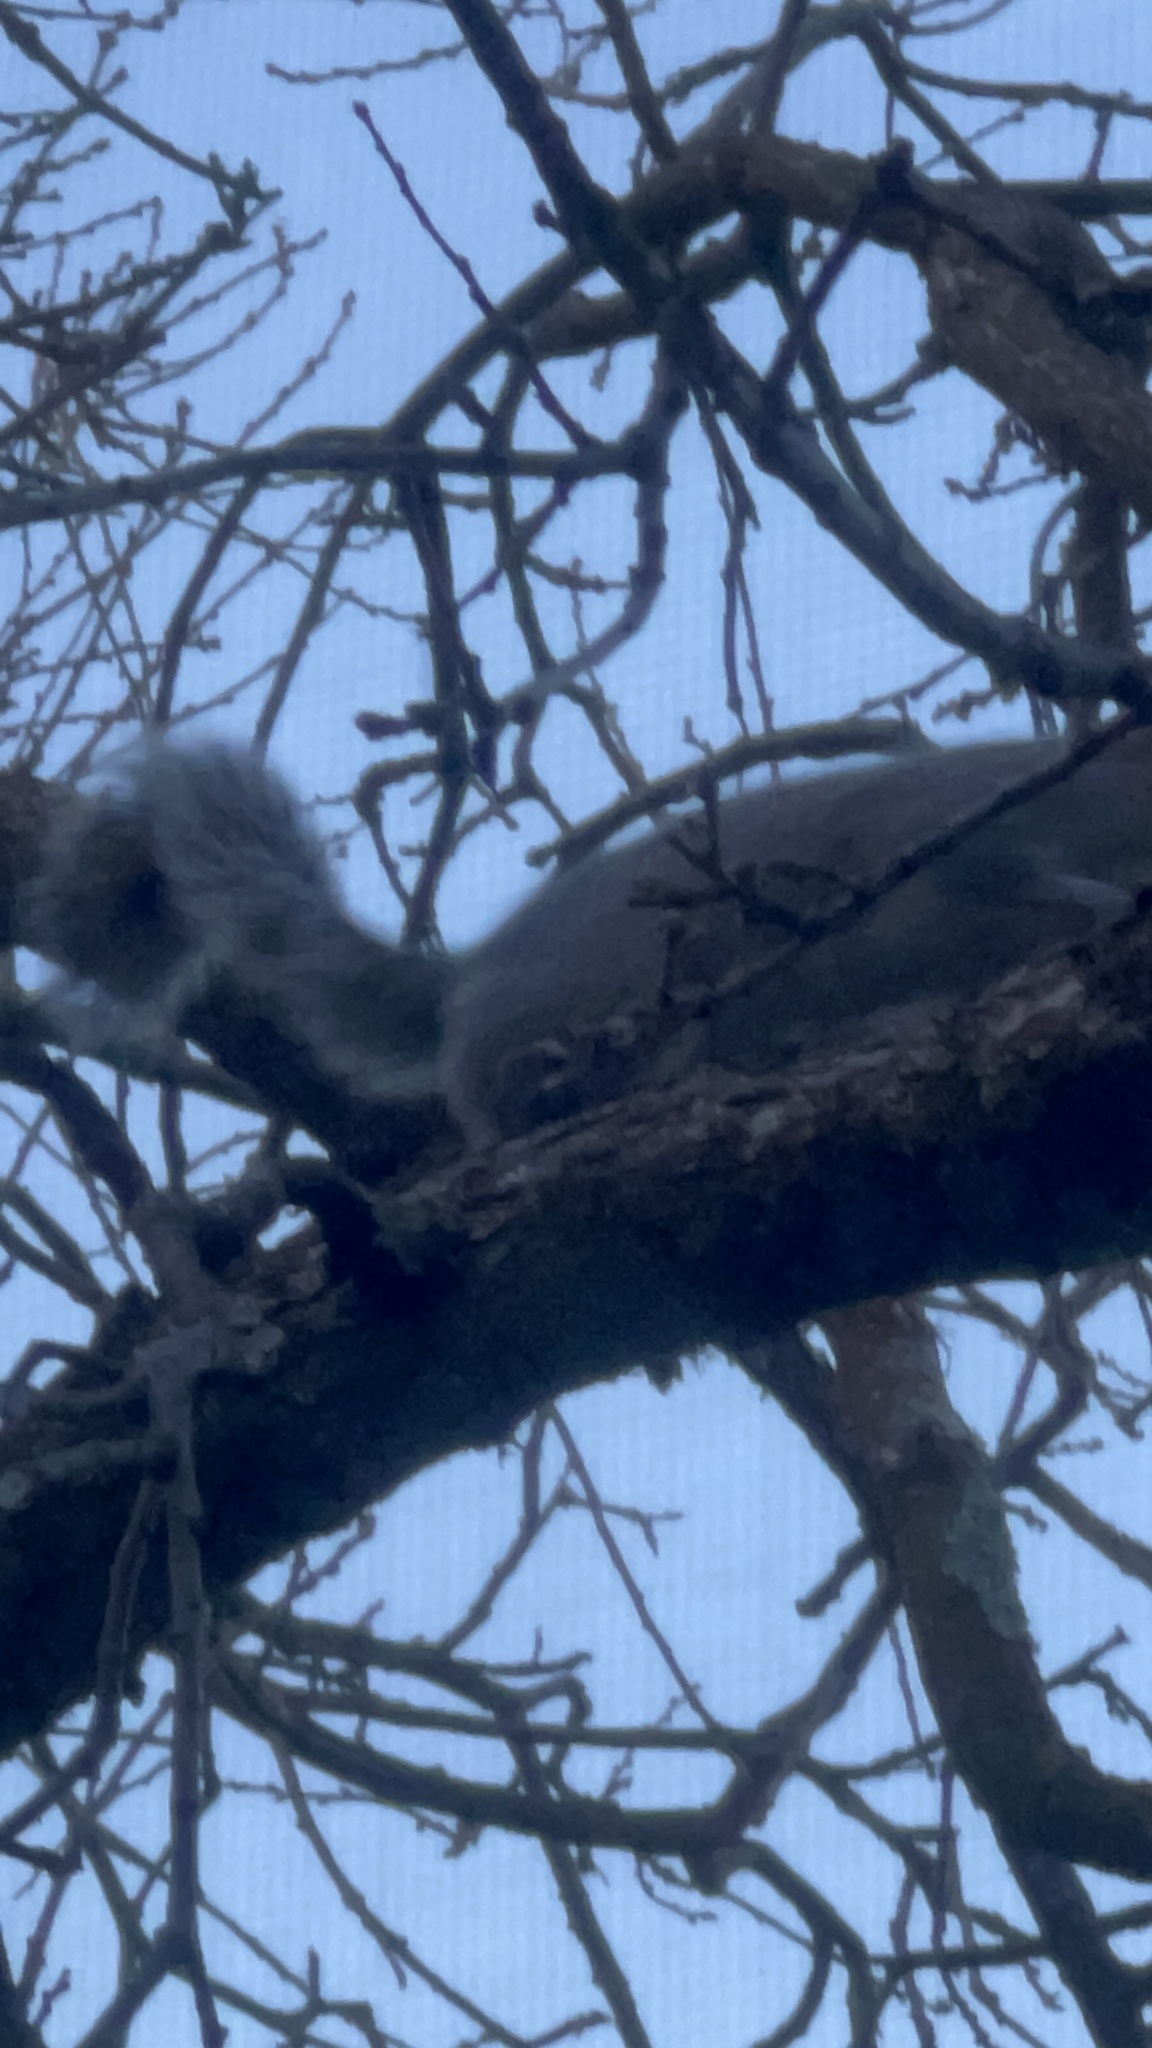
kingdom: Animalia
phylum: Chordata
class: Mammalia
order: Rodentia
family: Sciuridae
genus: Sciurus
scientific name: Sciurus carolinensis
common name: Eastern gray squirrel
